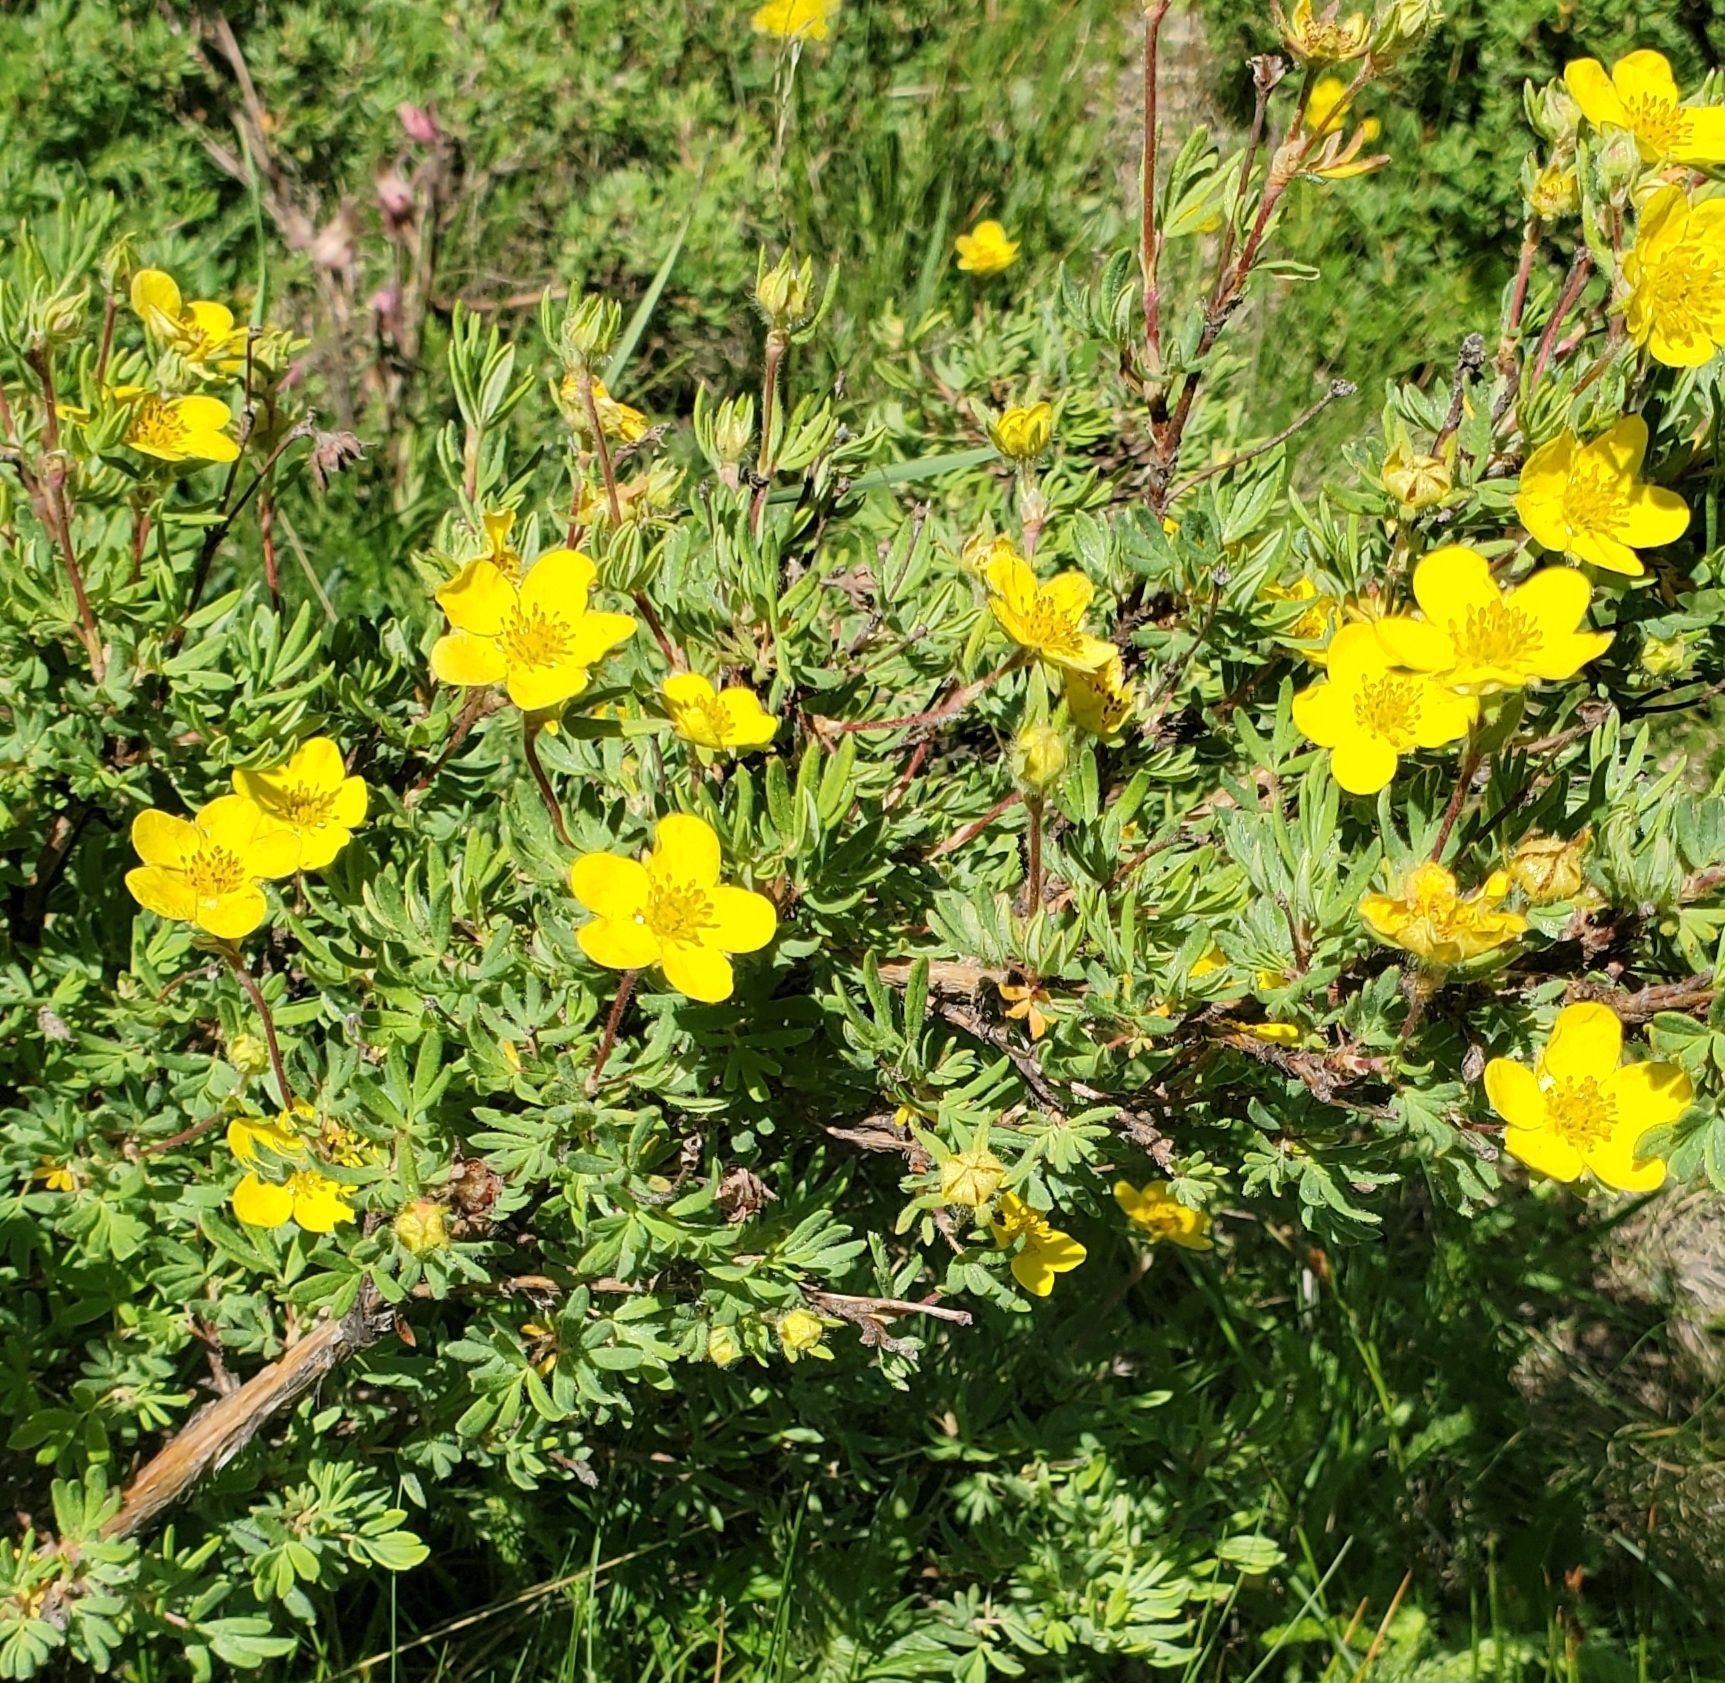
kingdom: Plantae
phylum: Tracheophyta
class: Magnoliopsida
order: Rosales
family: Rosaceae
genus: Dasiphora
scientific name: Dasiphora fruticosa
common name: Shrubby cinquefoil
